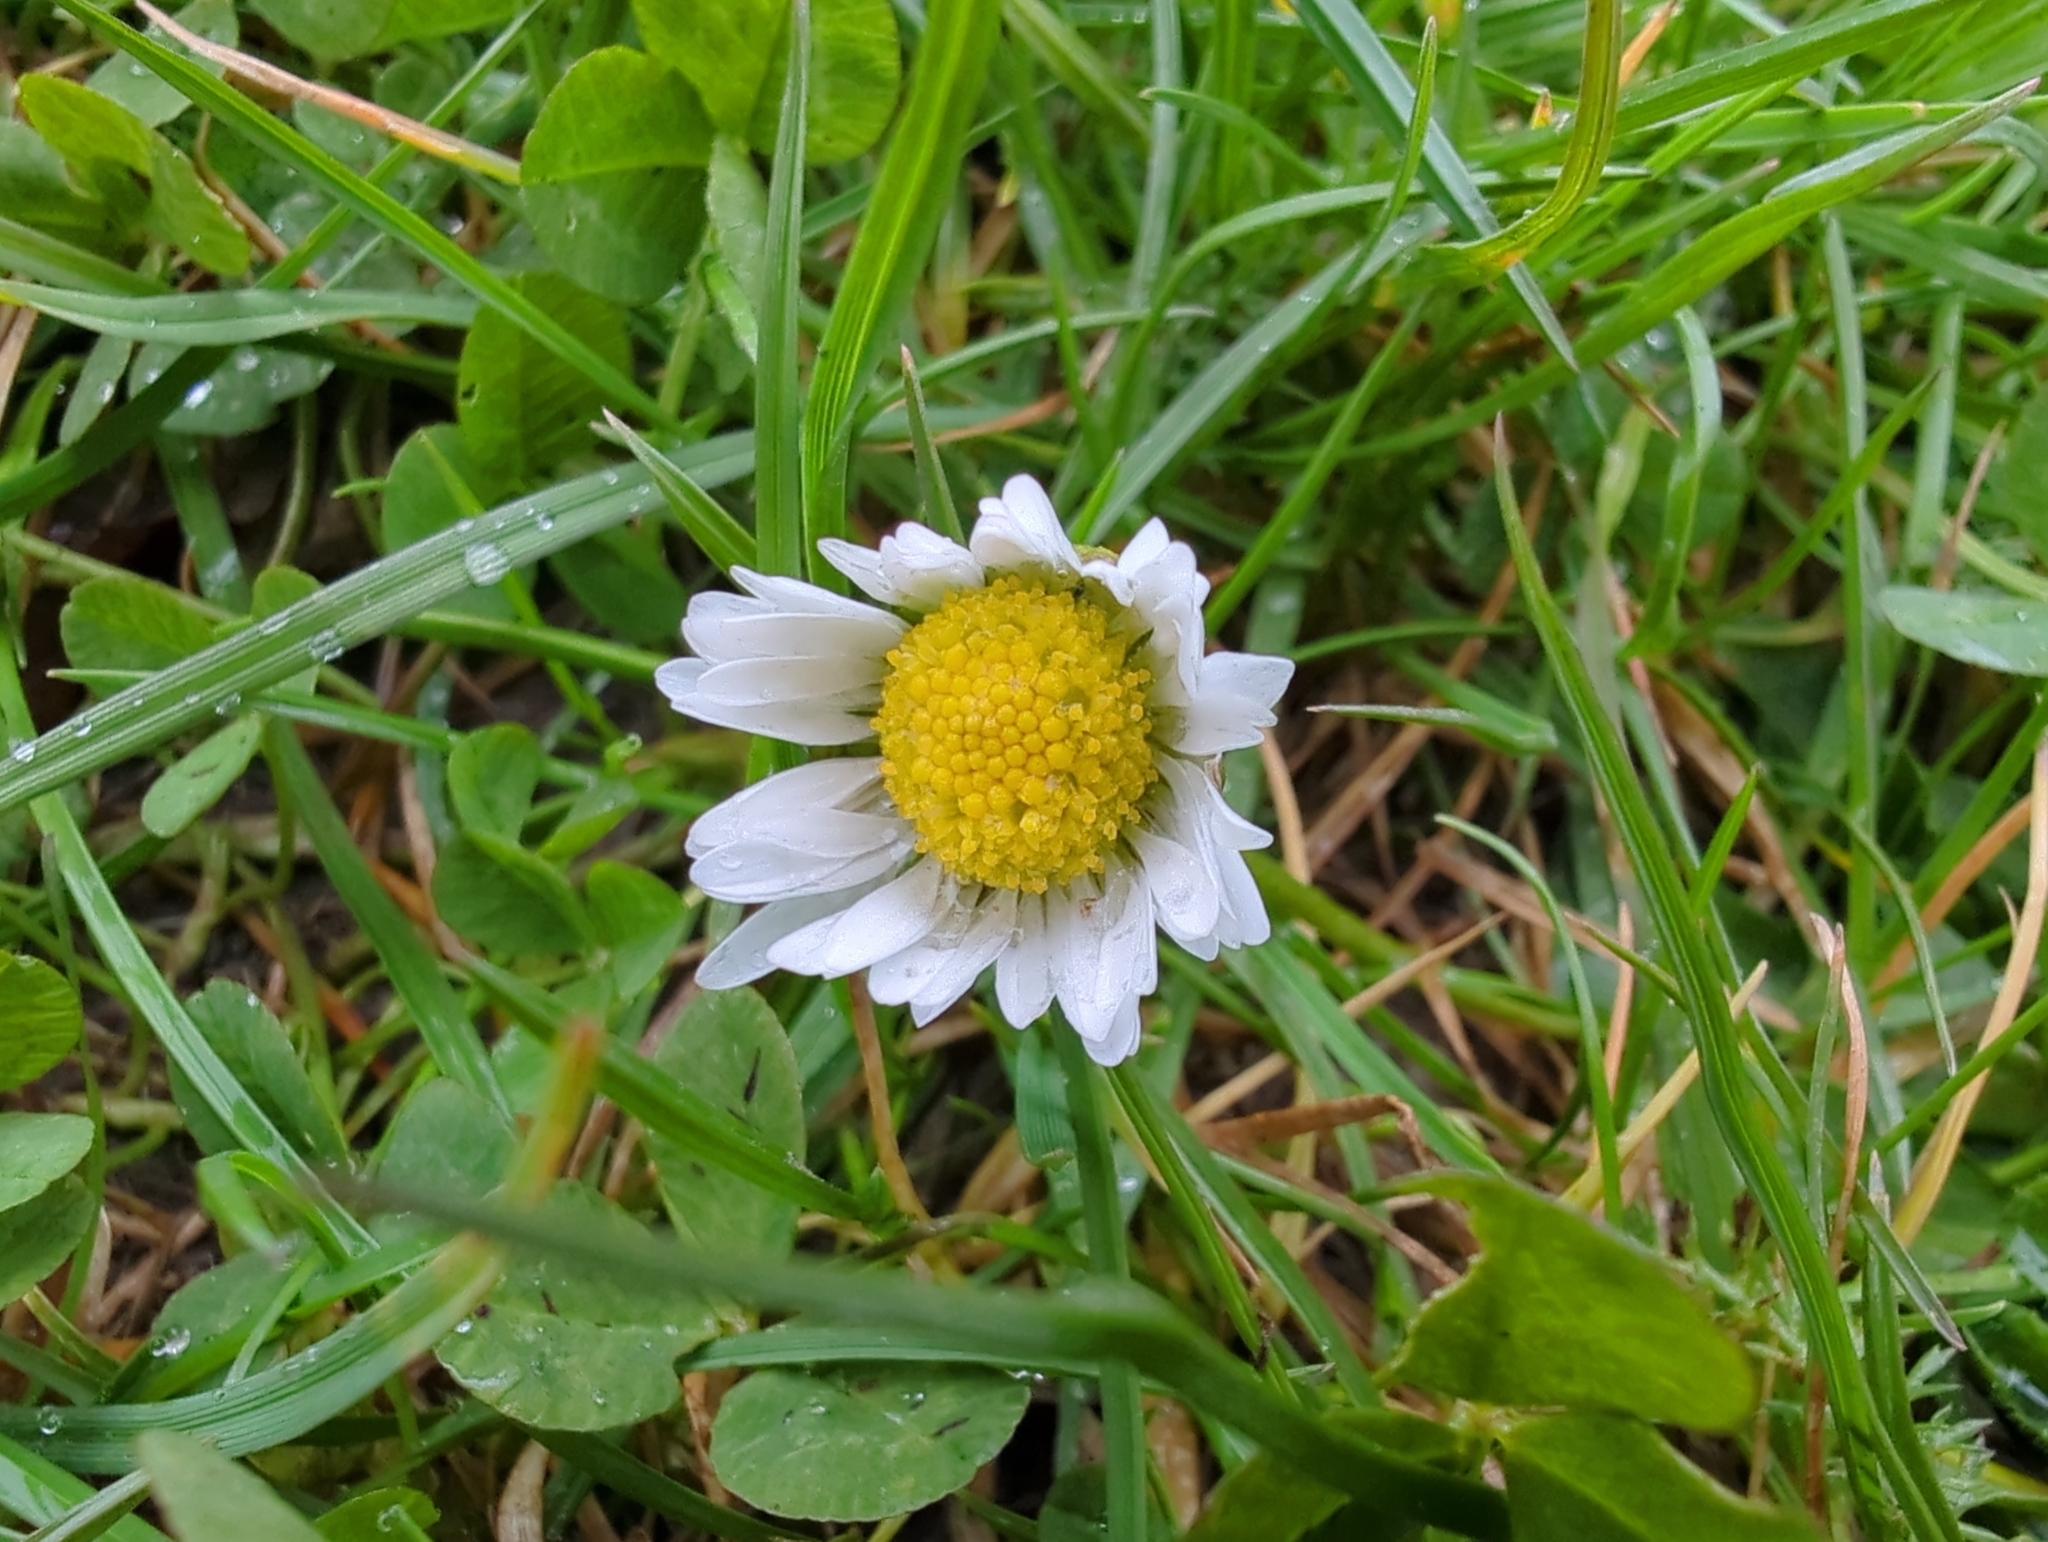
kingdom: Plantae
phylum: Tracheophyta
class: Magnoliopsida
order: Asterales
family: Asteraceae
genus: Bellis
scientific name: Bellis perennis
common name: Lawndaisy
